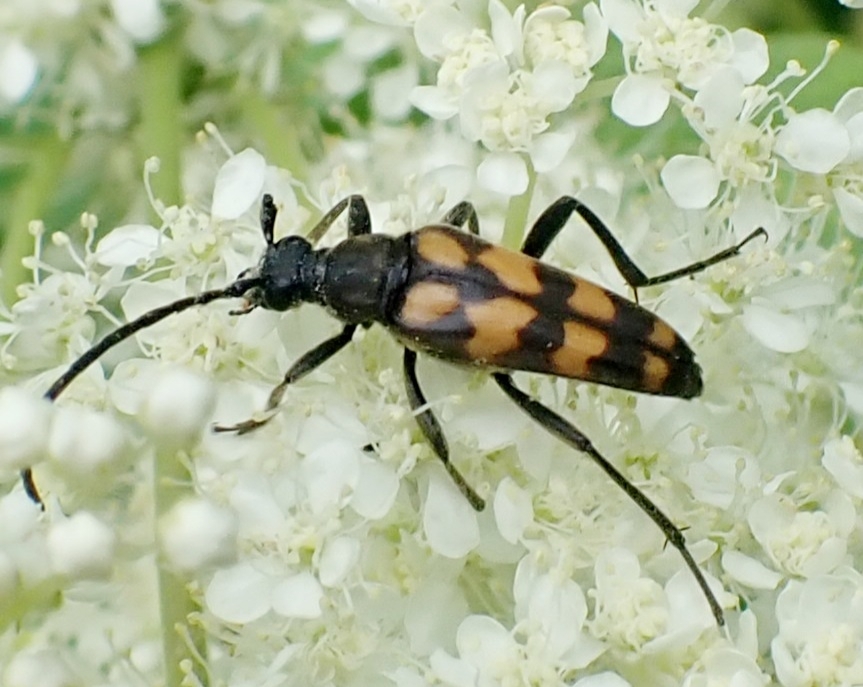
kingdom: Animalia
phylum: Arthropoda
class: Insecta
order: Coleoptera
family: Cerambycidae
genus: Leptura
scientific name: Leptura quadrifasciata
